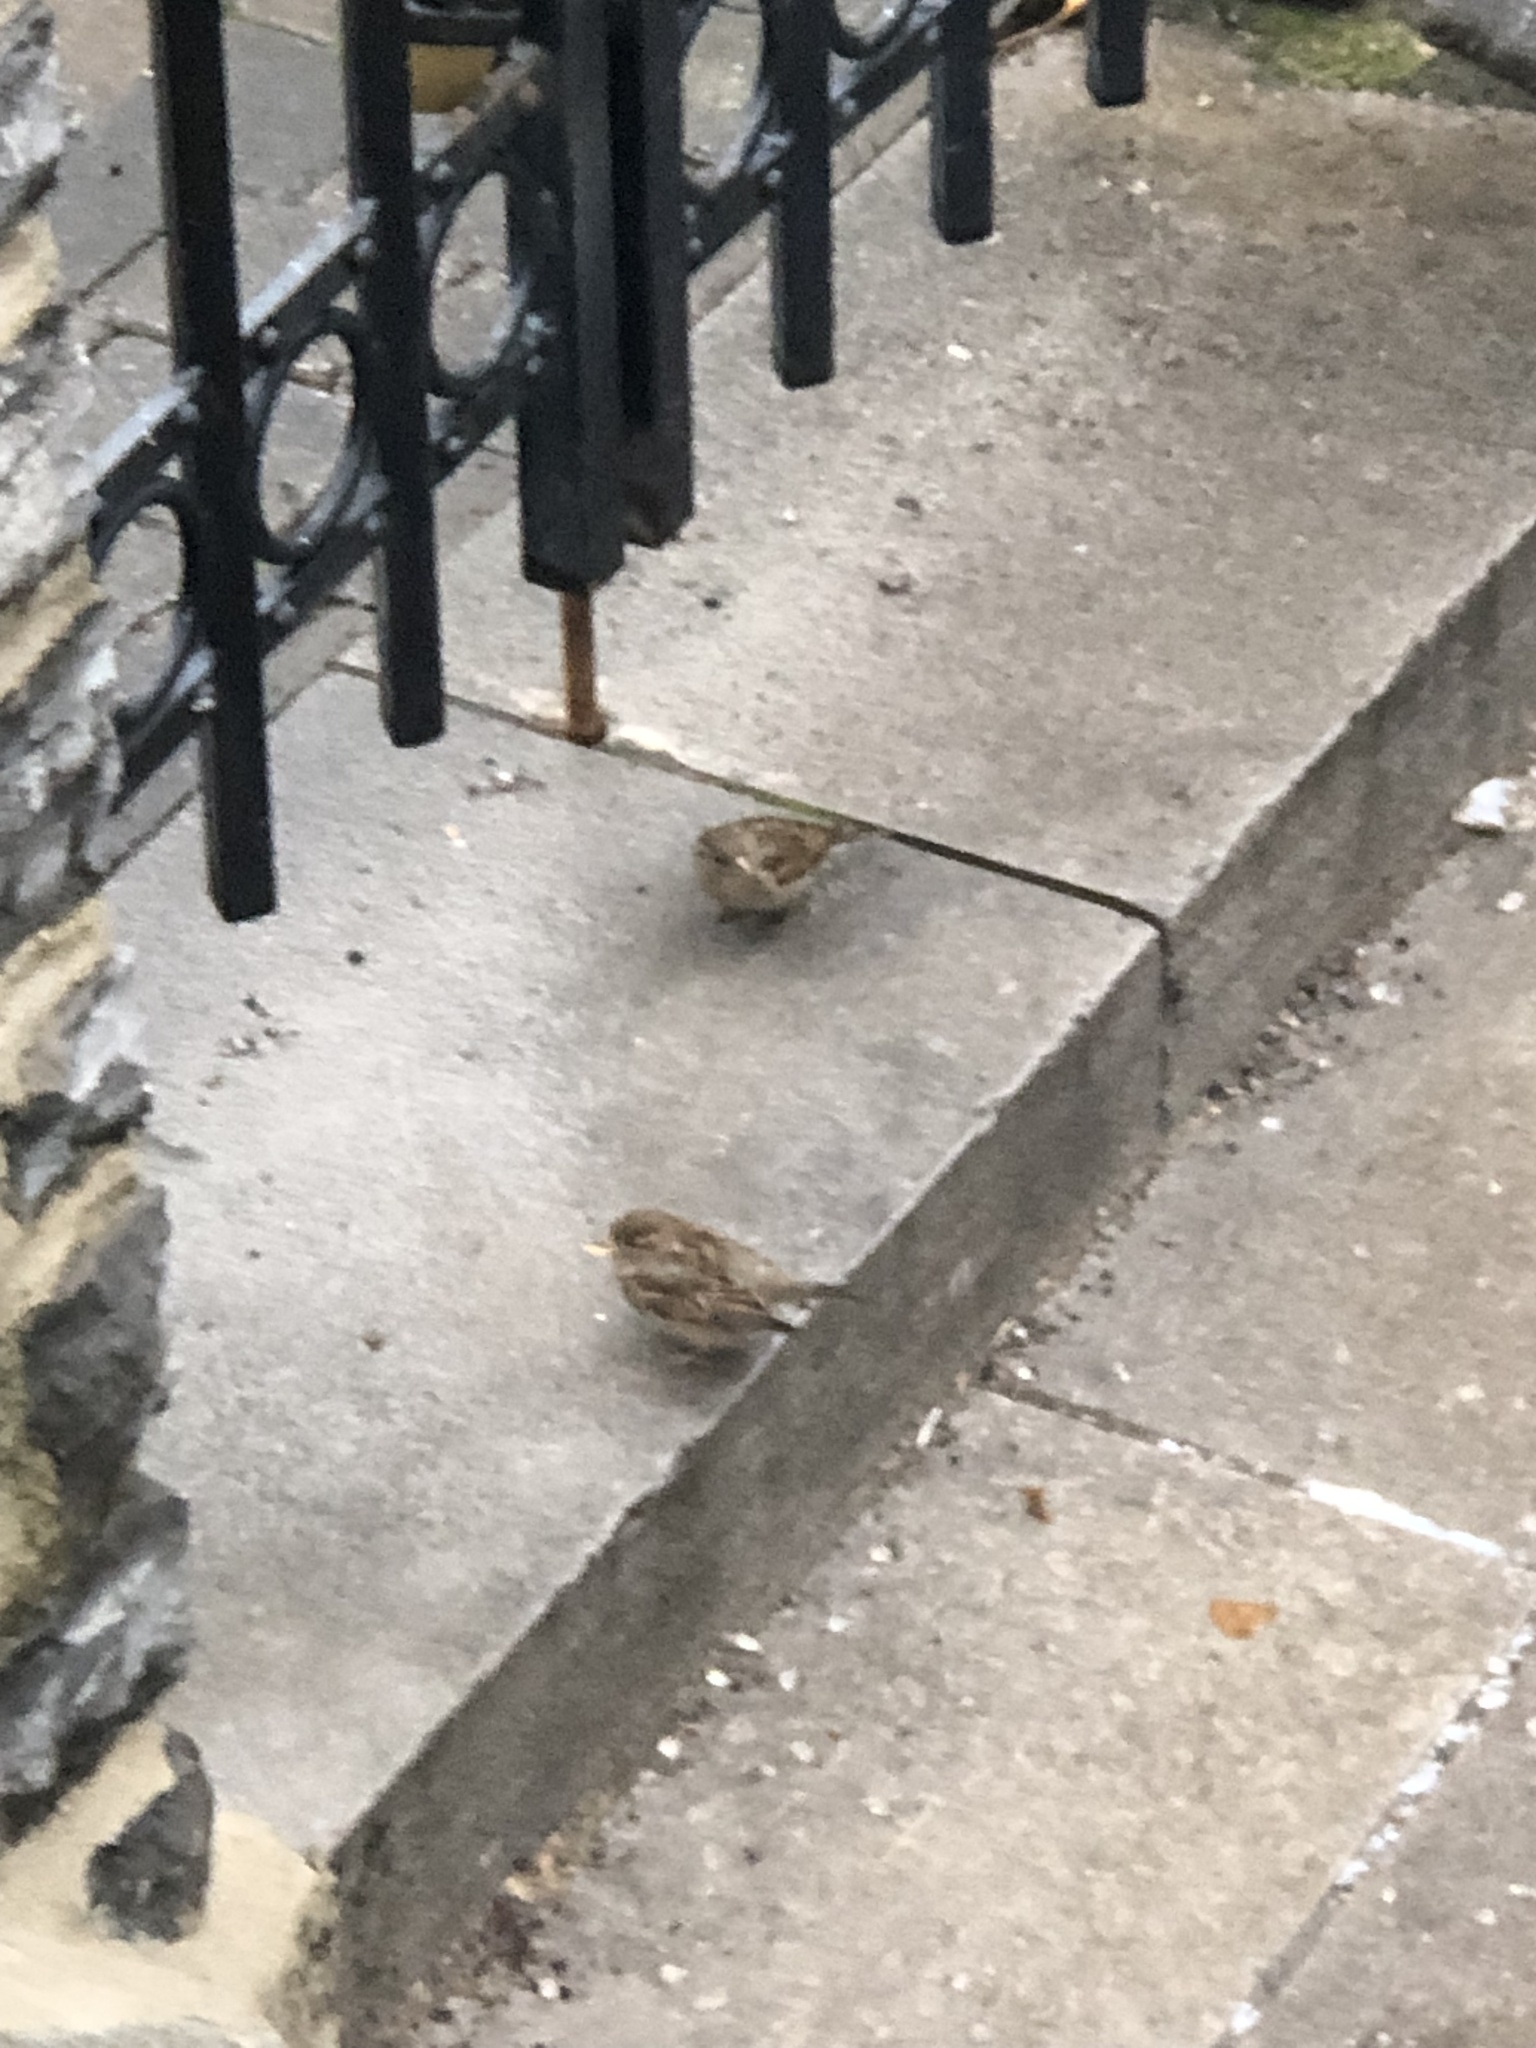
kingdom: Animalia
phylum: Chordata
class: Aves
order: Passeriformes
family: Passeridae
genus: Passer
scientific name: Passer domesticus
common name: House sparrow
